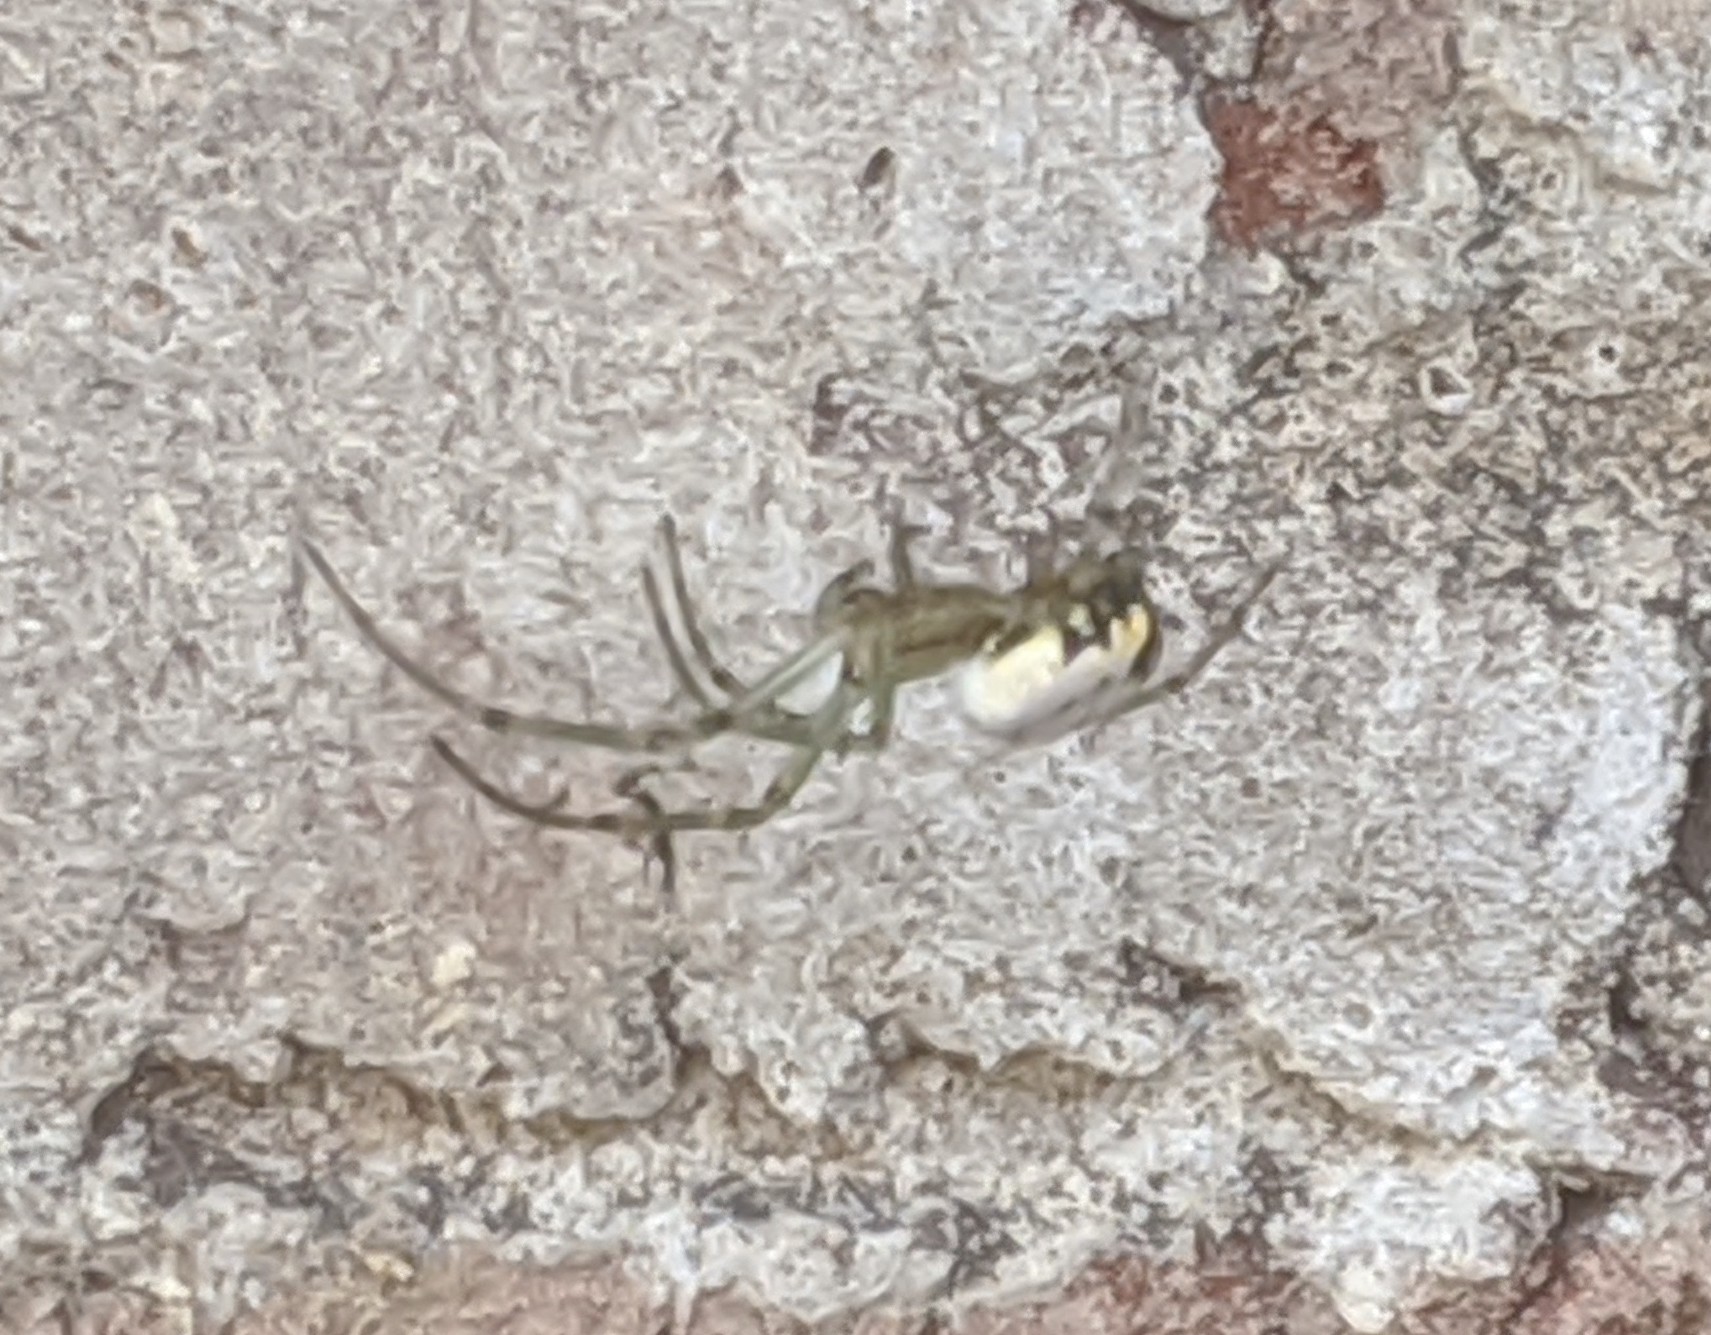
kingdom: Animalia
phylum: Arthropoda
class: Arachnida
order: Araneae
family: Tetragnathidae
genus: Leucauge
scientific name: Leucauge venusta
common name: Longjawed orb weavers
